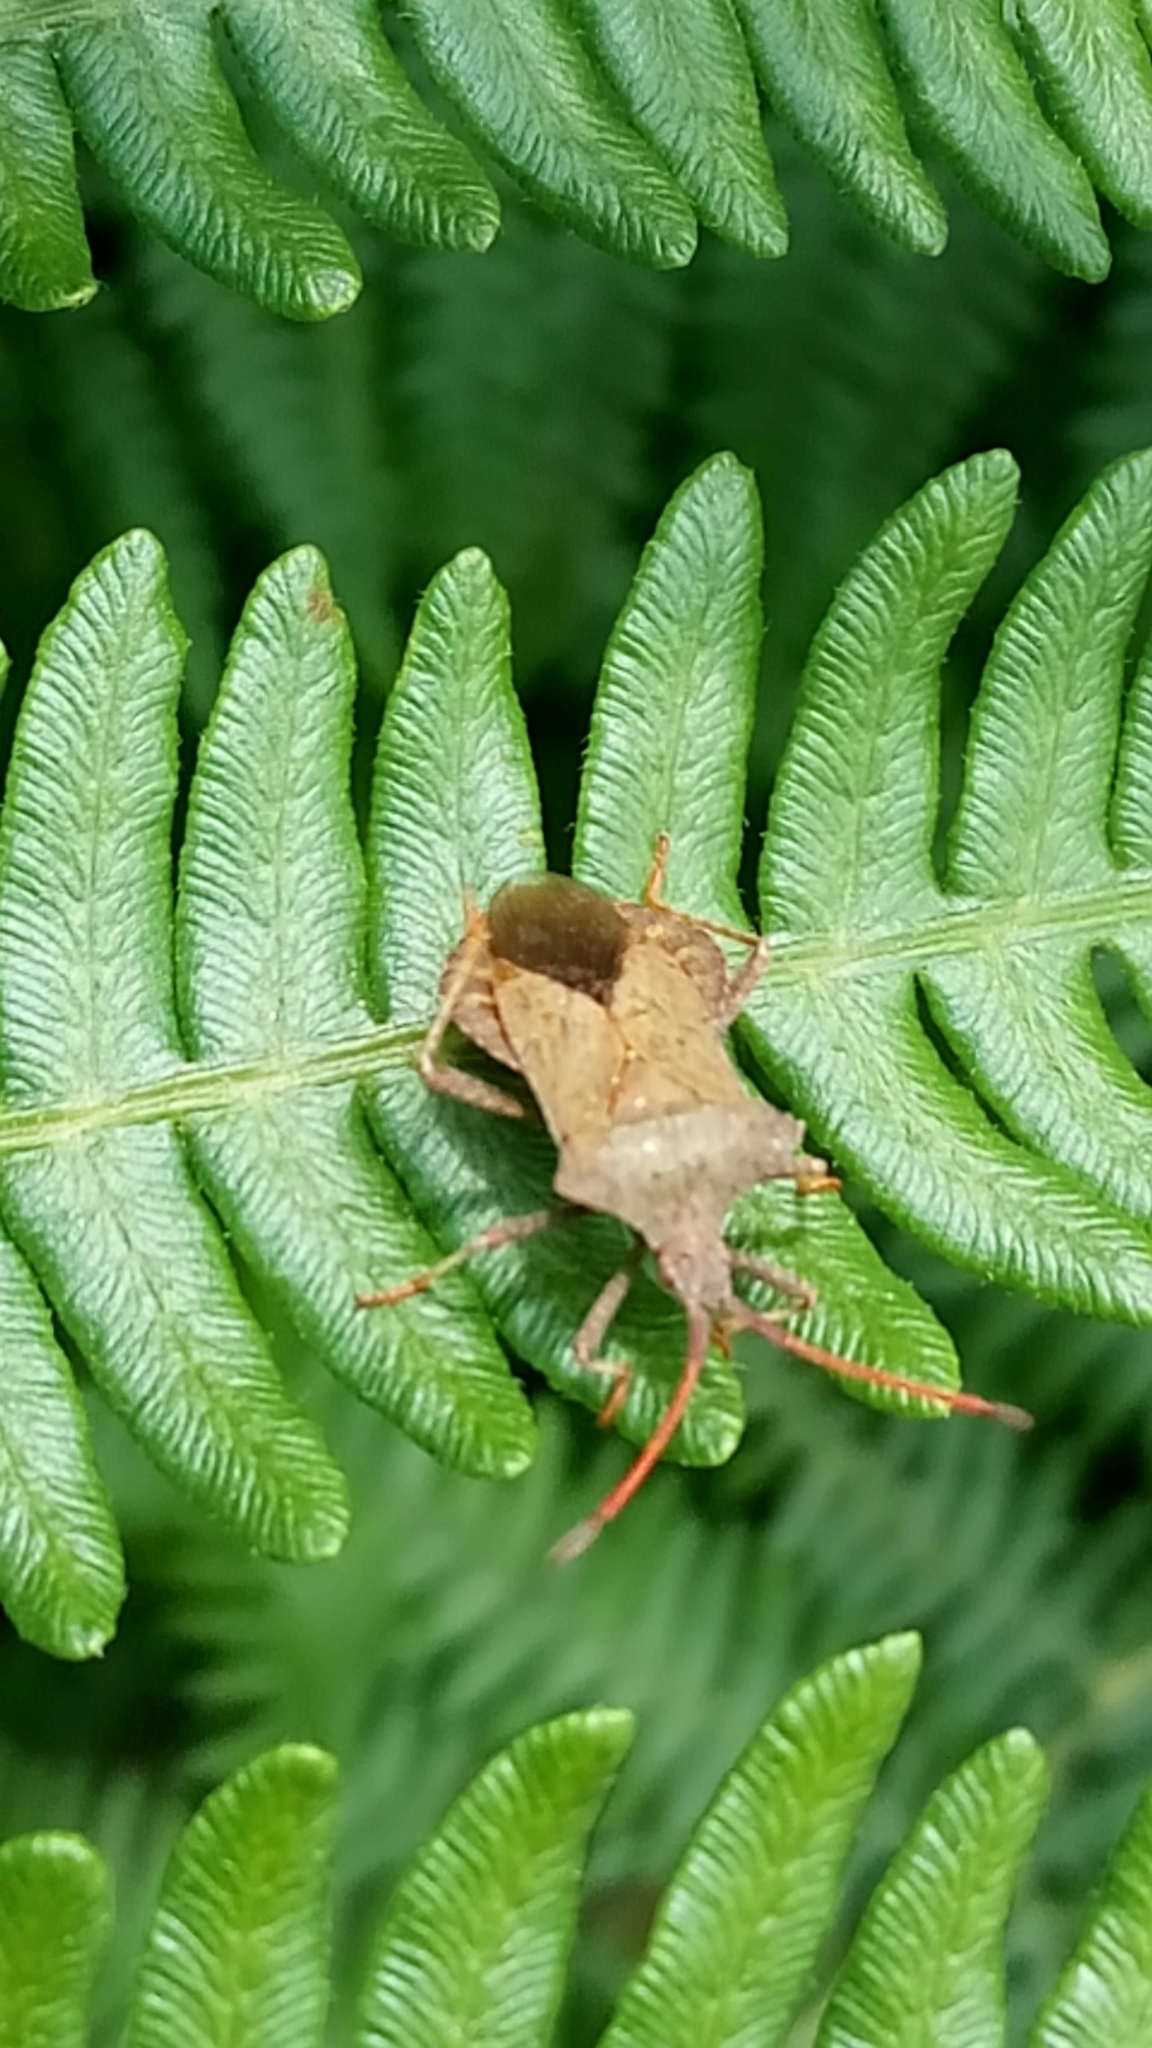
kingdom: Animalia
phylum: Arthropoda
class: Insecta
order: Hemiptera
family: Coreidae
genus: Coreus
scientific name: Coreus marginatus
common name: Dock bug
